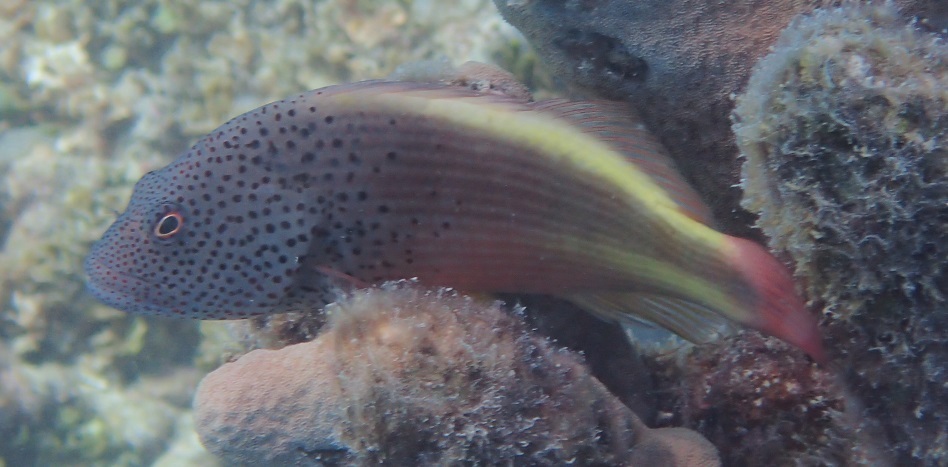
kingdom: Animalia
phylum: Chordata
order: Perciformes
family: Cirrhitidae
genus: Paracirrhites
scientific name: Paracirrhites forsteri
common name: Freckled hawkfish
